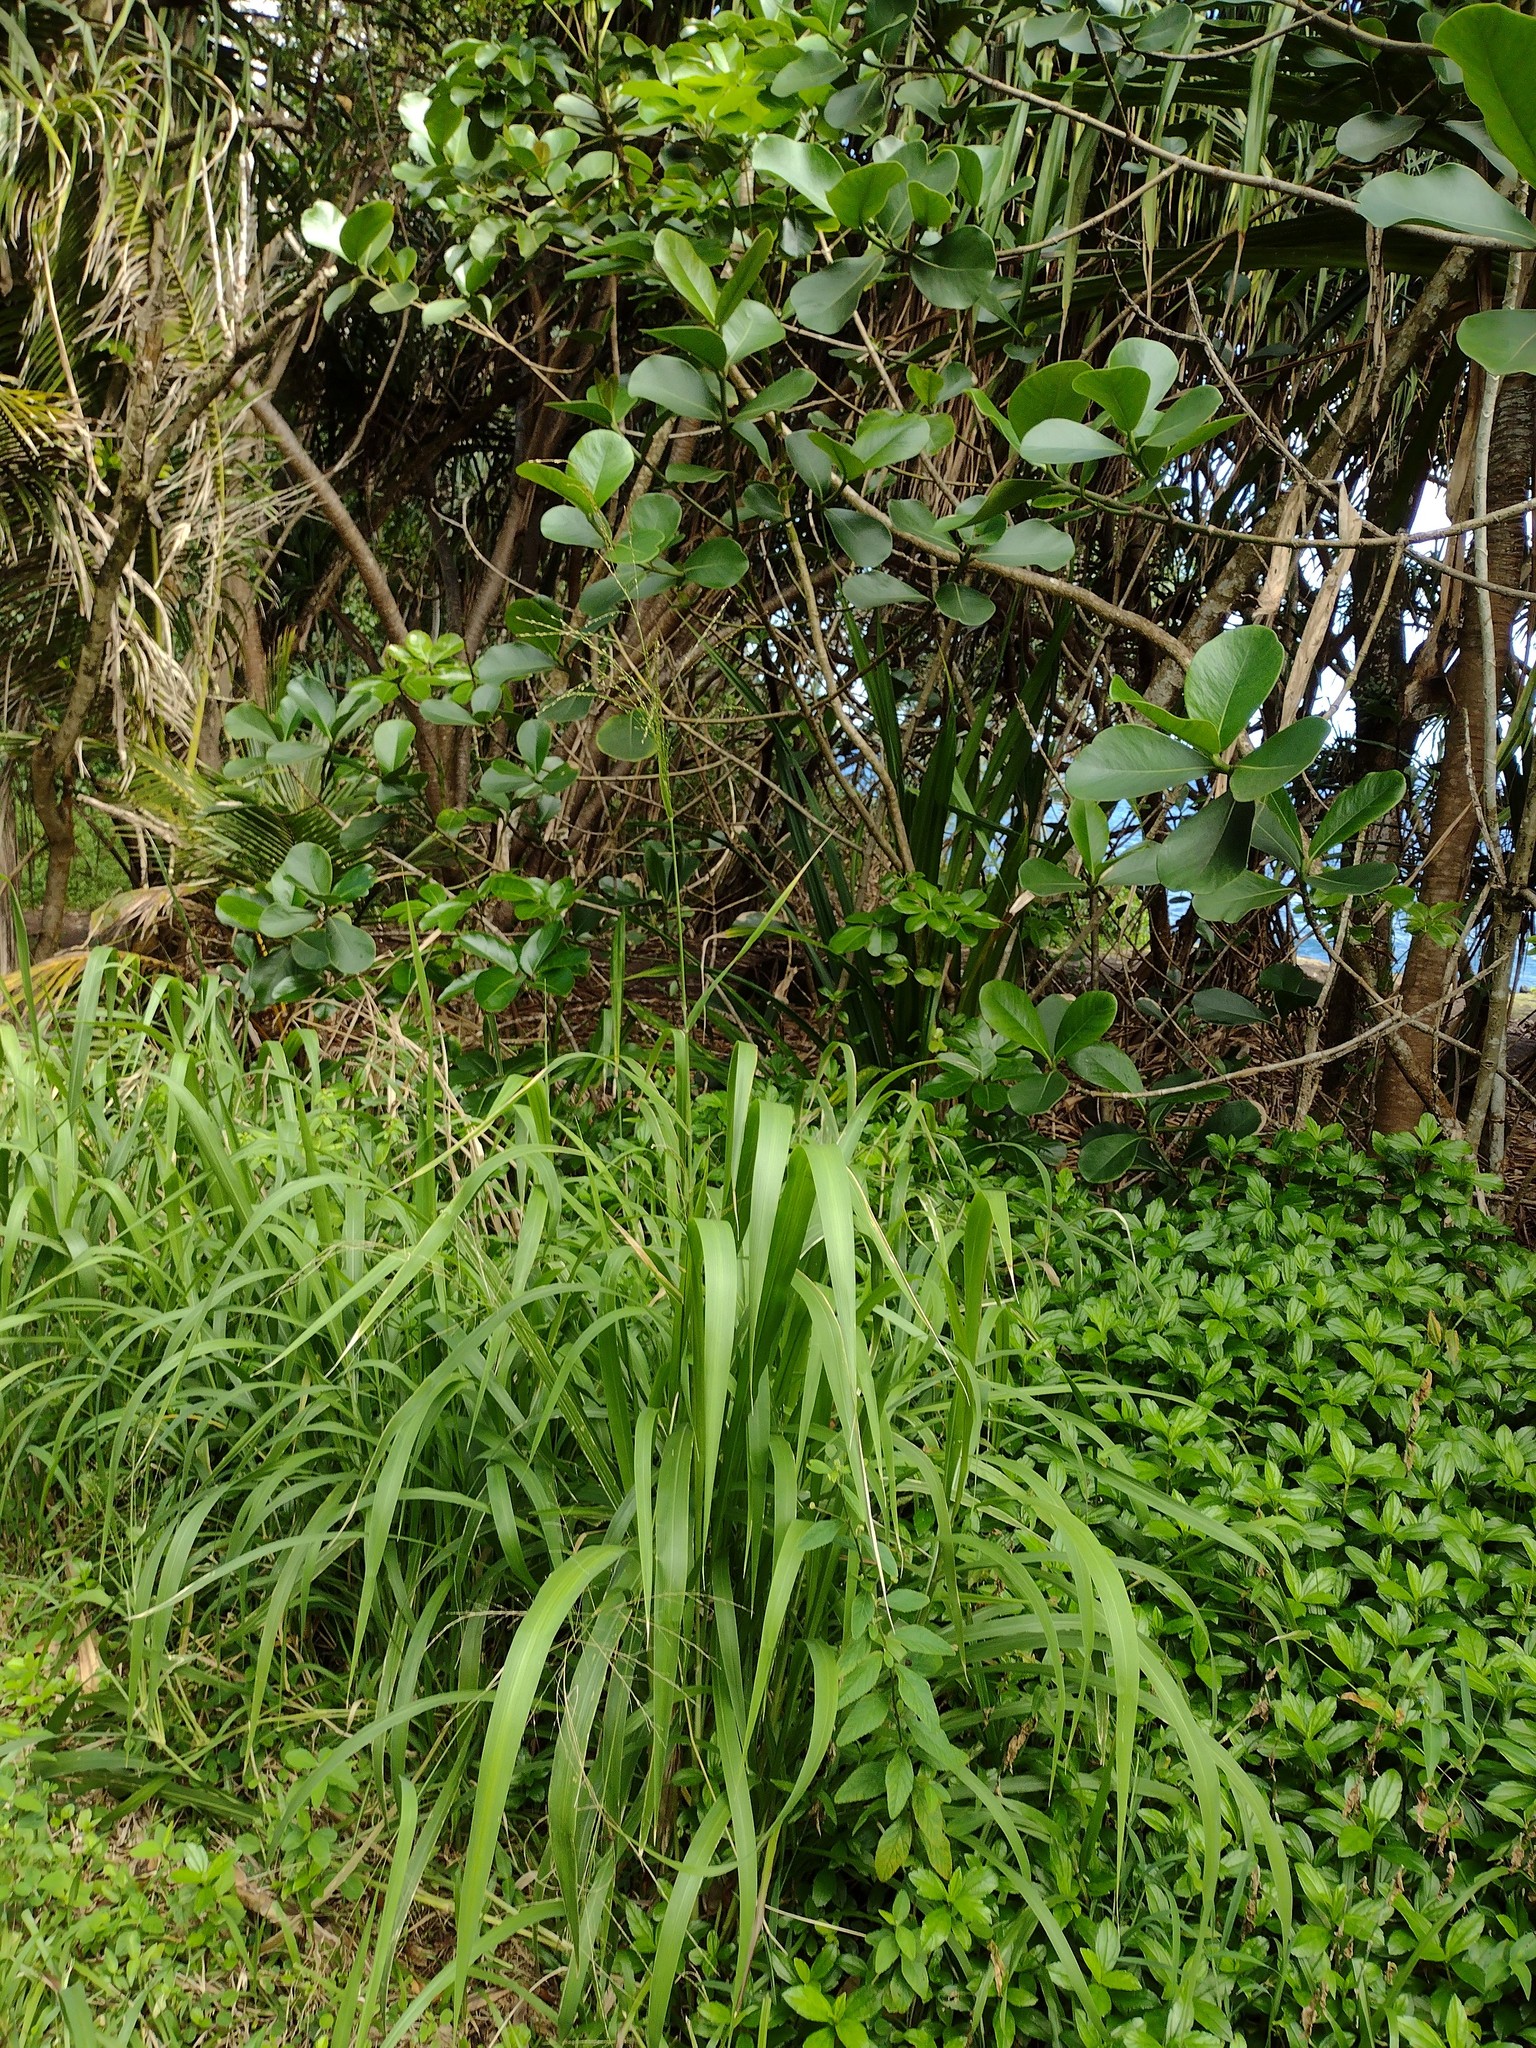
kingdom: Plantae
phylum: Tracheophyta
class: Liliopsida
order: Poales
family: Poaceae
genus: Megathyrsus
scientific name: Megathyrsus maximus
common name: Guineagrass
